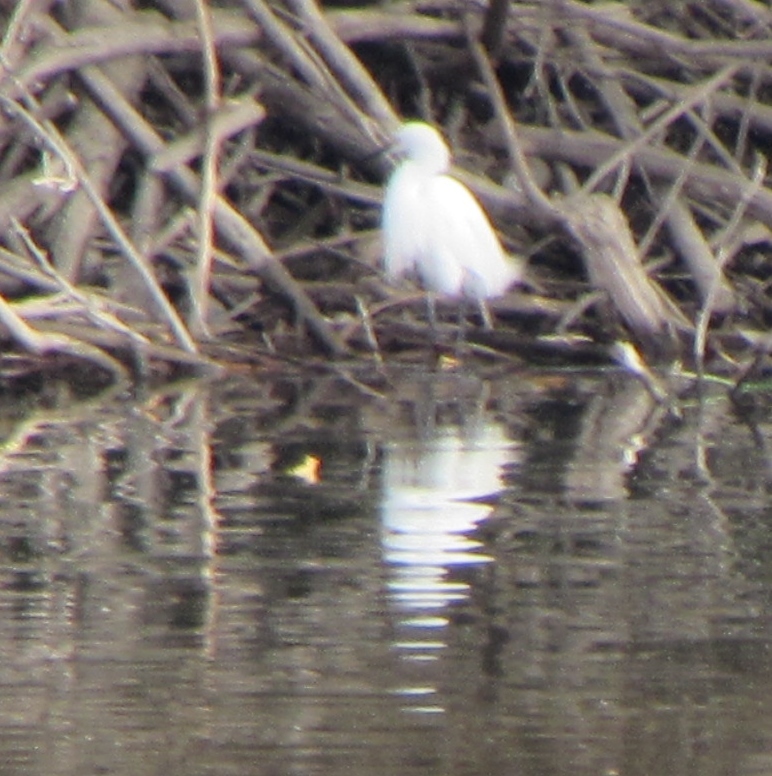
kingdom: Animalia
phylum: Chordata
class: Aves
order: Pelecaniformes
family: Ardeidae
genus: Egretta
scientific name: Egretta thula
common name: Snowy egret
